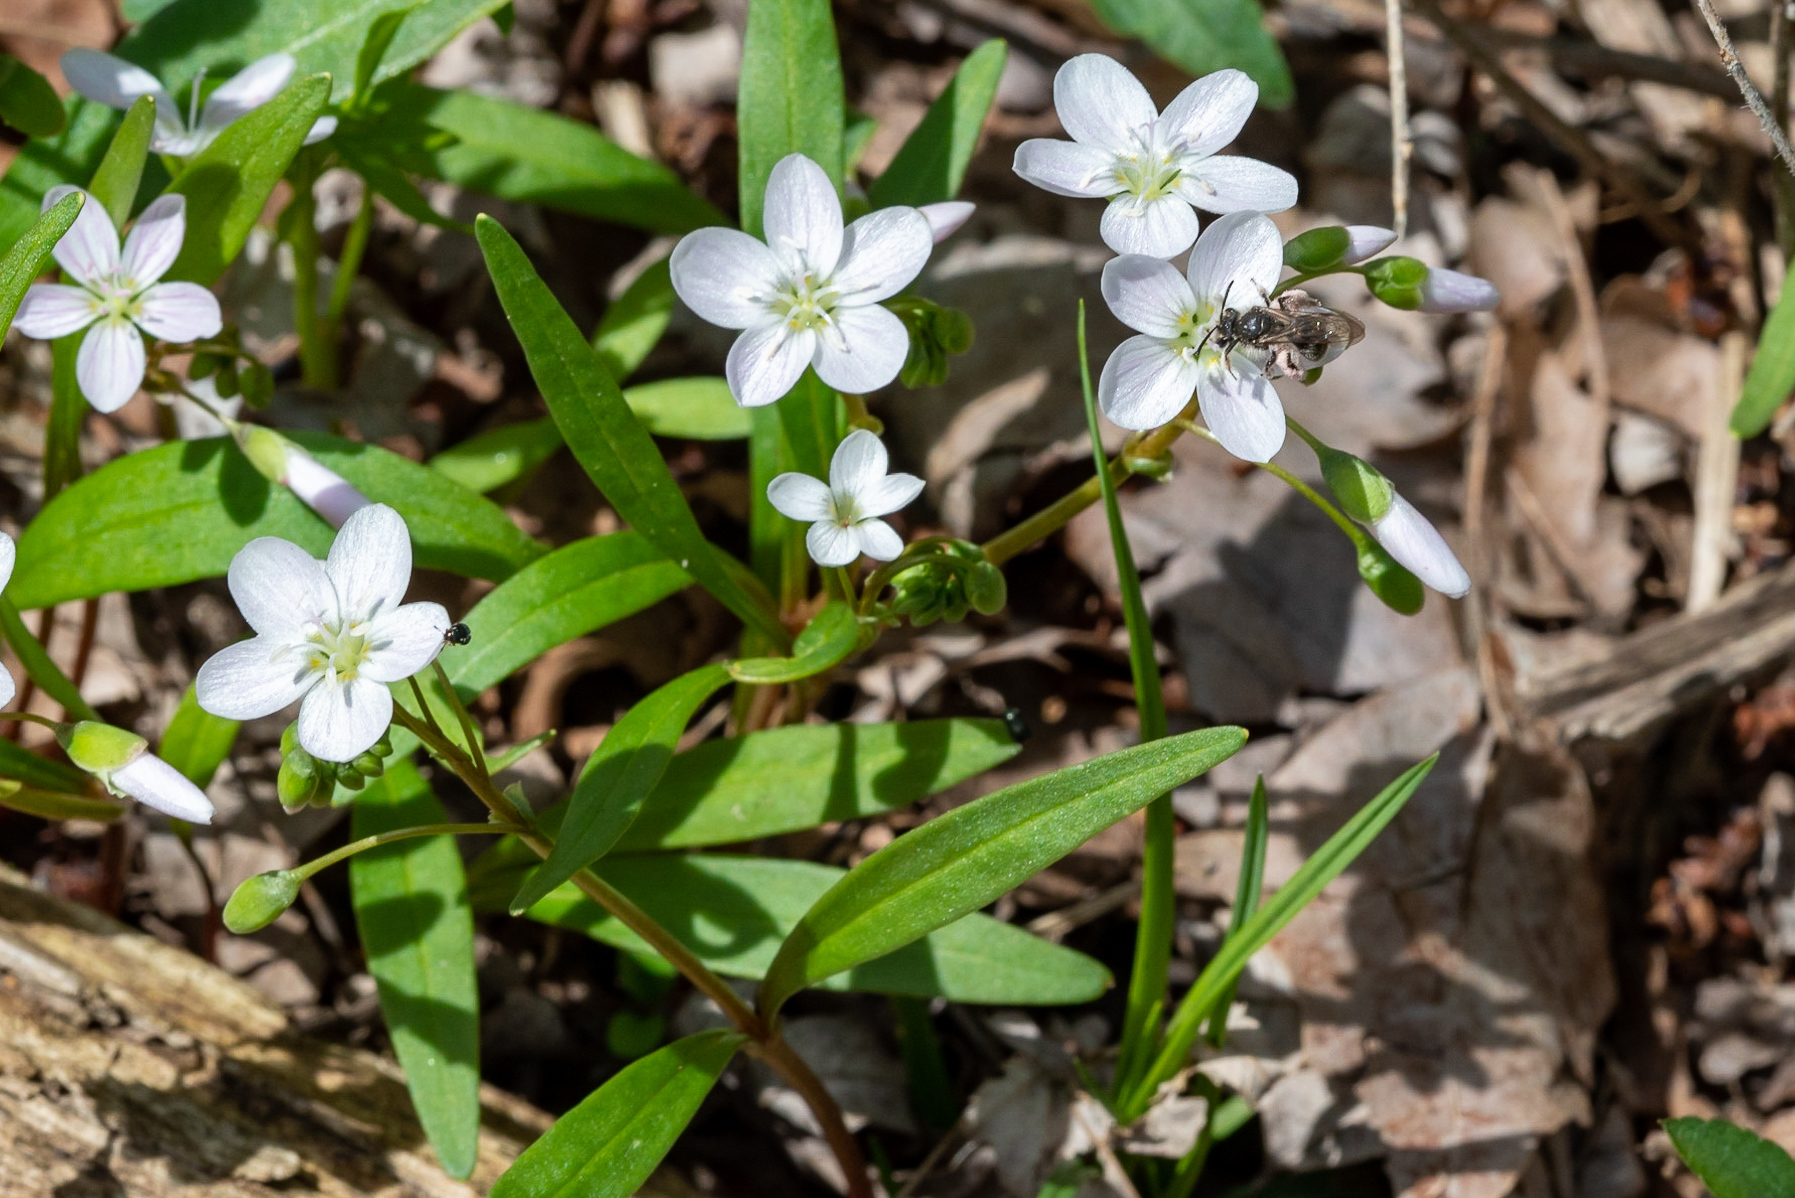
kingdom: Plantae
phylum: Tracheophyta
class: Magnoliopsida
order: Caryophyllales
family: Montiaceae
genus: Claytonia
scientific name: Claytonia virginica
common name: Virginia springbeauty
